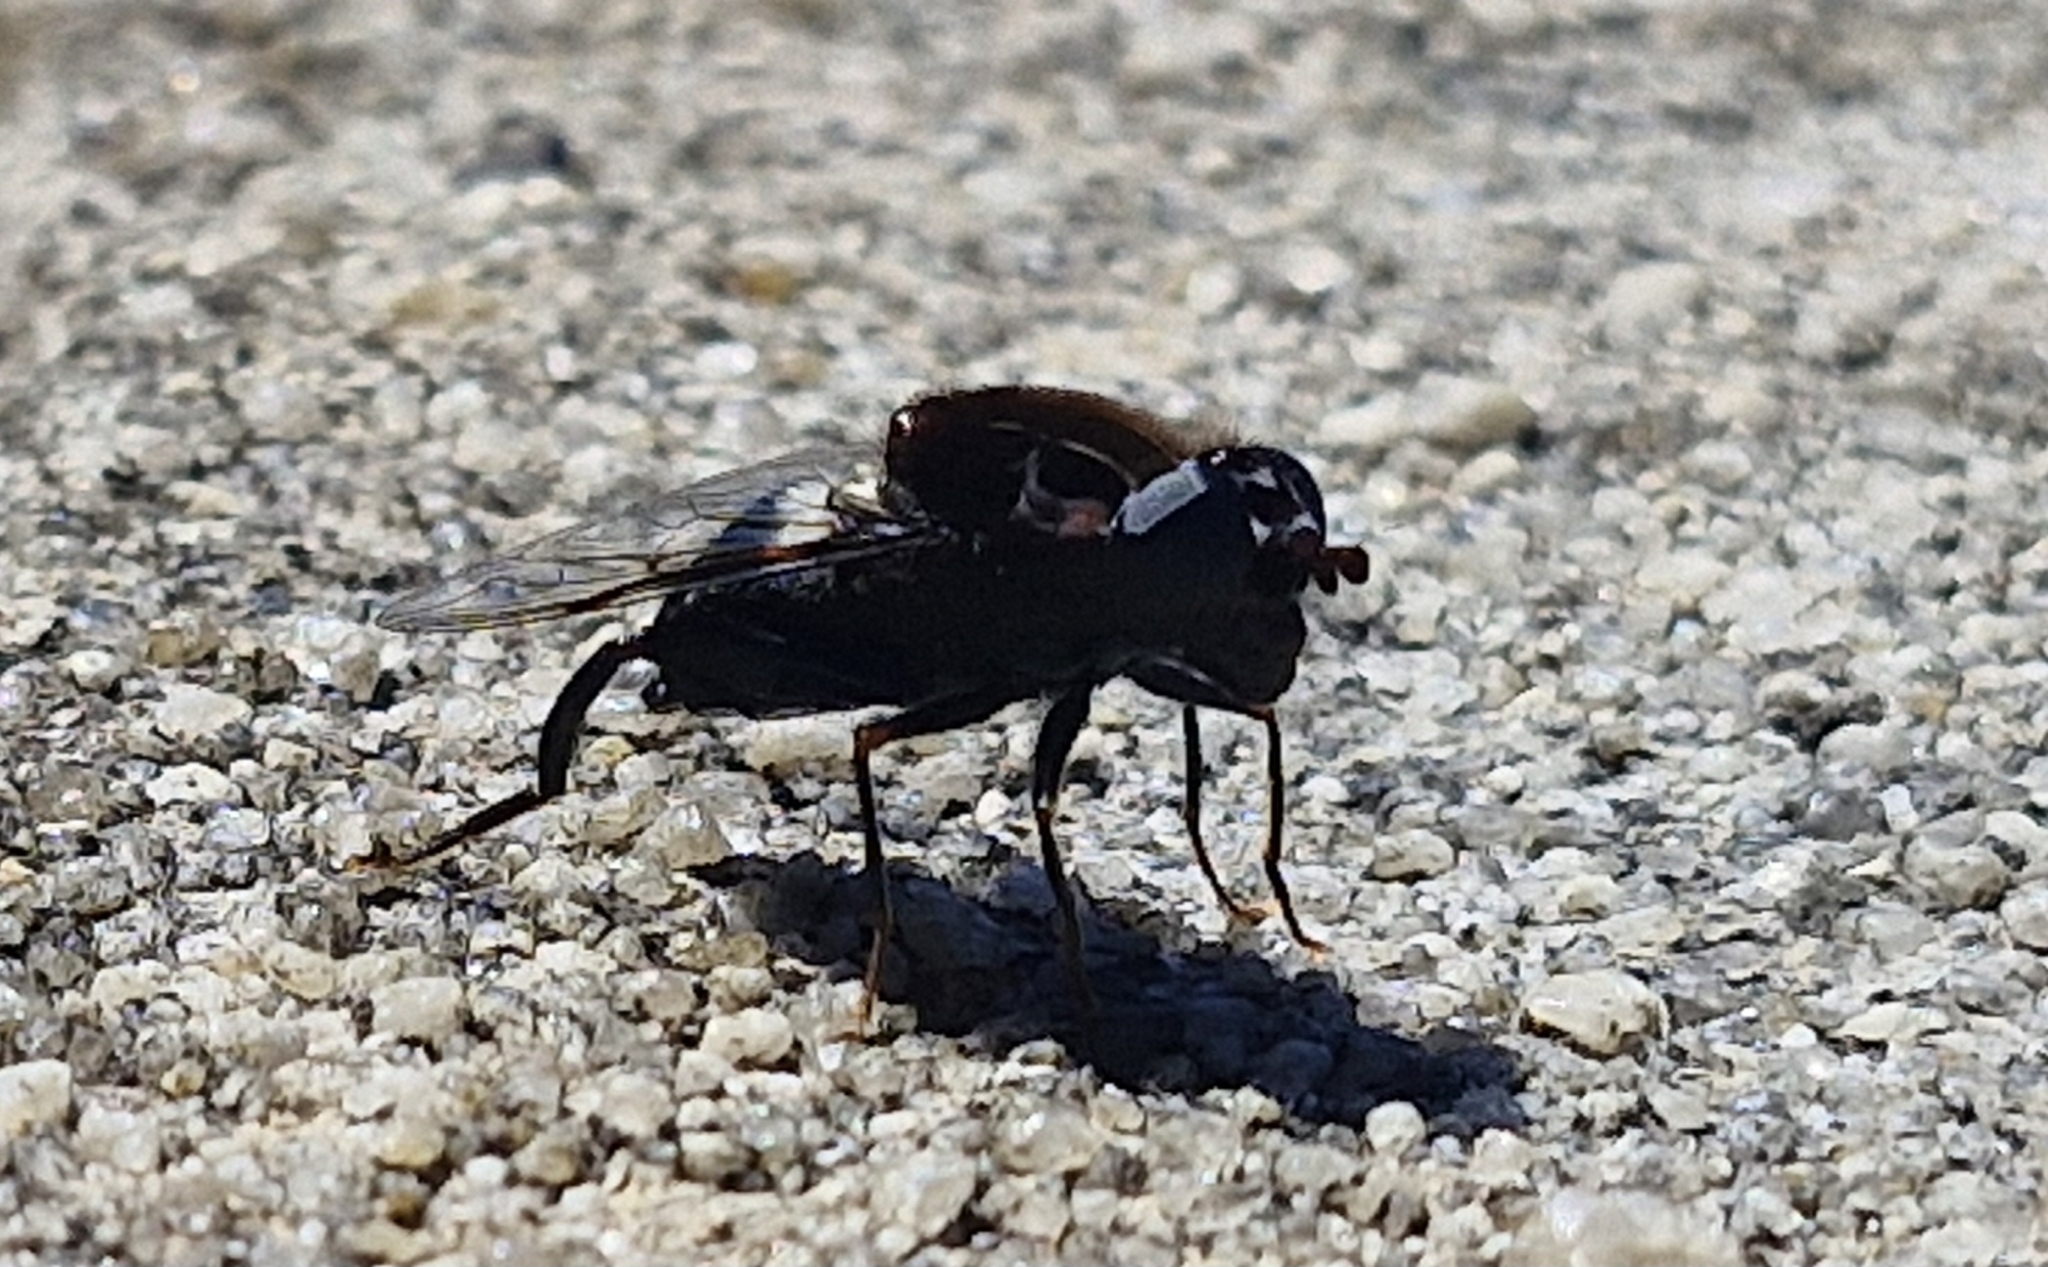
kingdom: Animalia
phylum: Arthropoda
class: Insecta
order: Diptera
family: Syrphidae
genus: Helophilus
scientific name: Helophilus cingulatus
